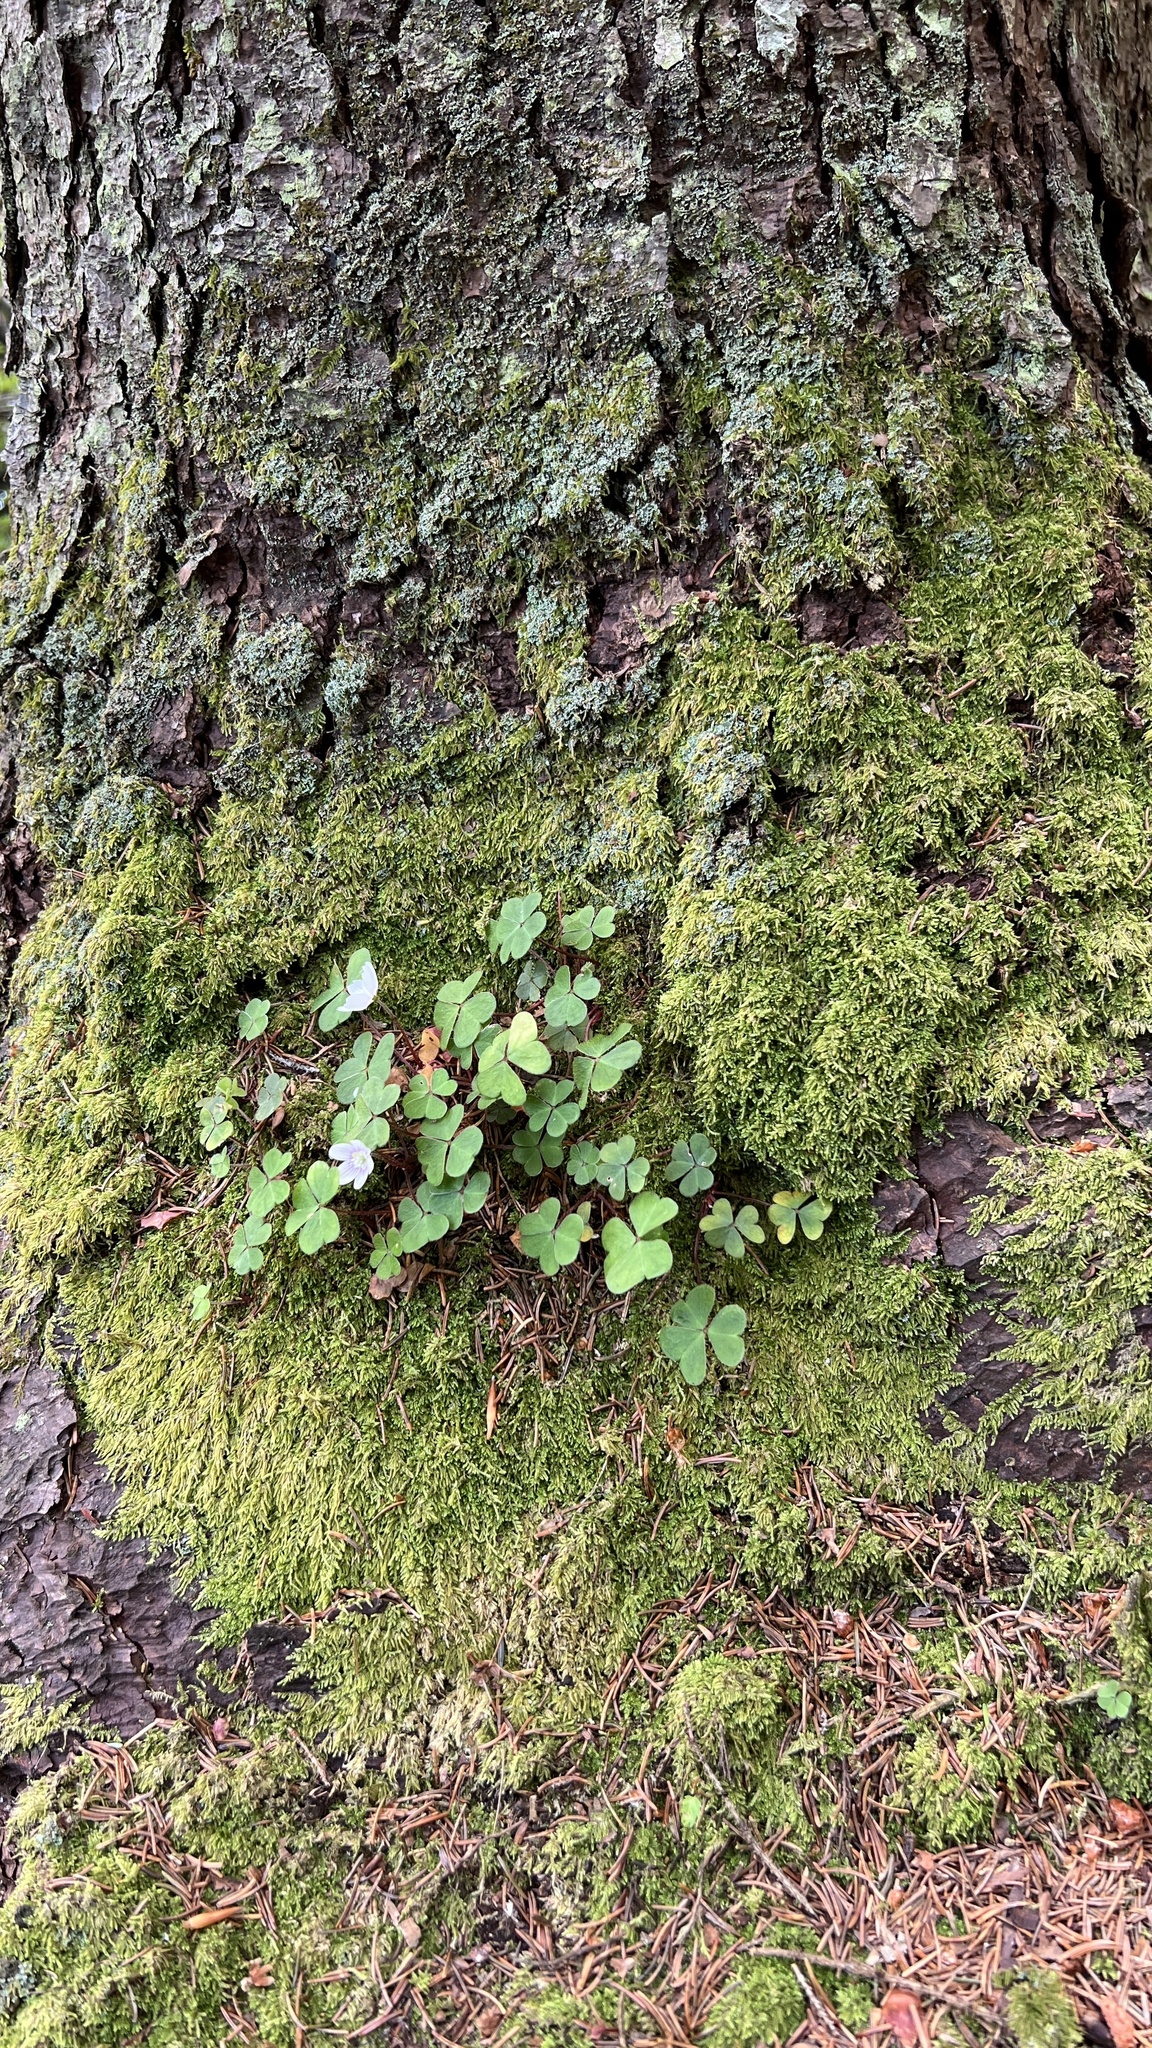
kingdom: Plantae
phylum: Tracheophyta
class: Magnoliopsida
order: Oxalidales
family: Oxalidaceae
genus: Oxalis
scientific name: Oxalis montana
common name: American wood-sorrel
